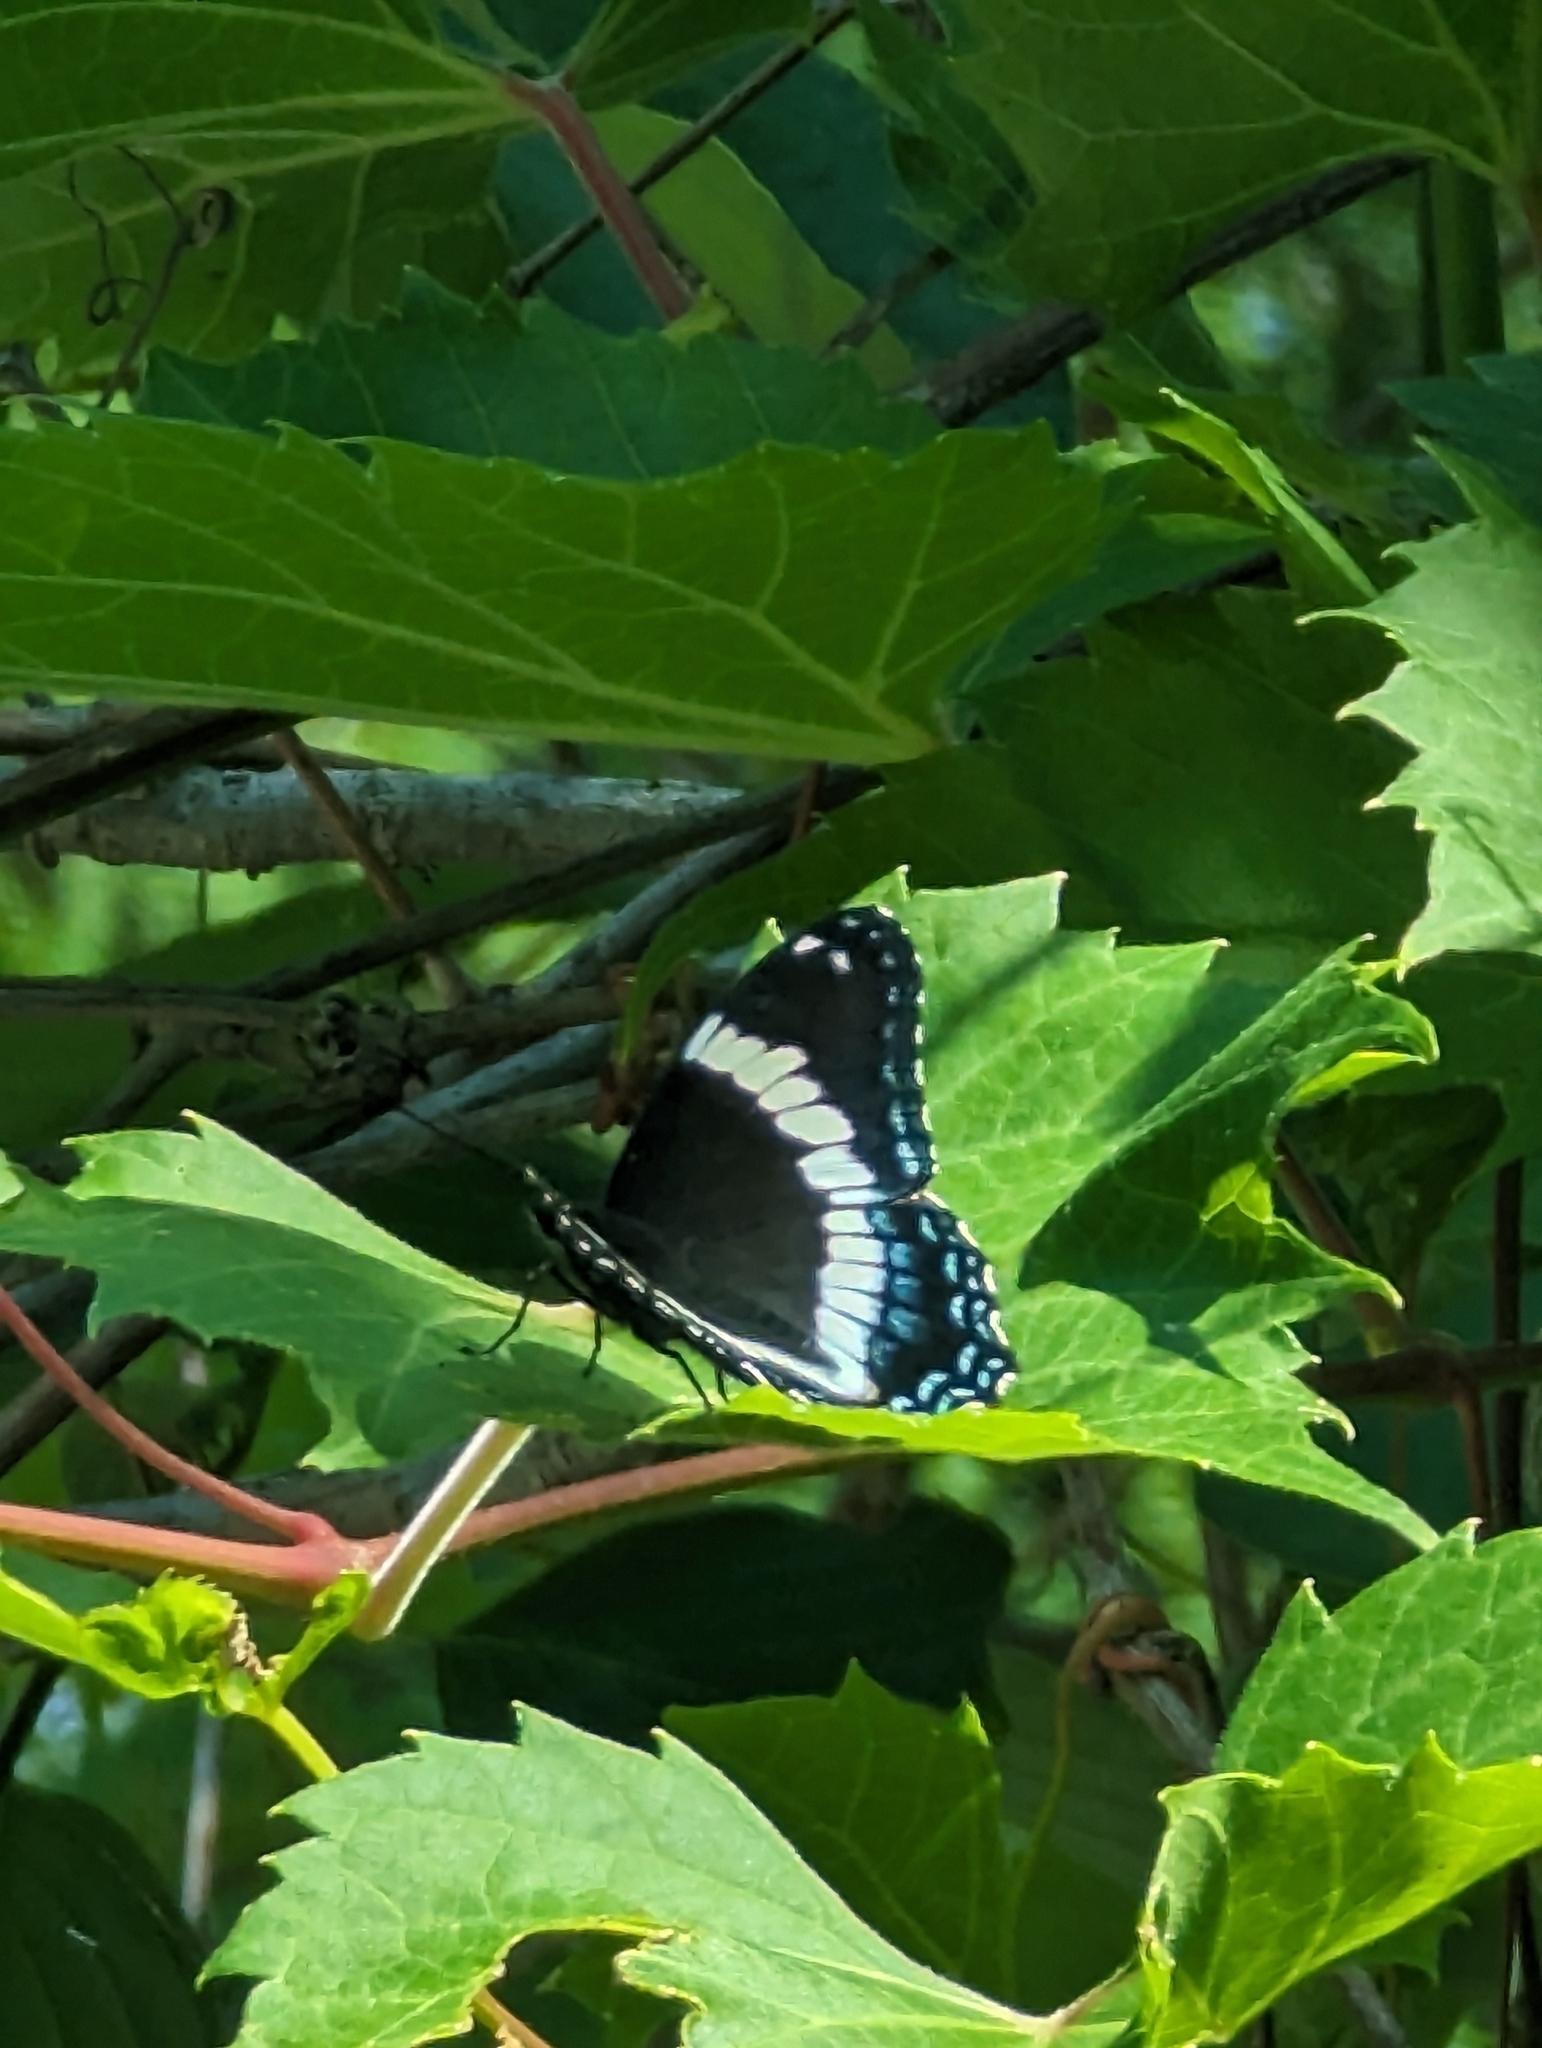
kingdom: Animalia
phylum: Arthropoda
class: Insecta
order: Lepidoptera
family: Nymphalidae
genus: Limenitis
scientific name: Limenitis arthemis
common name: Red-spotted admiral
